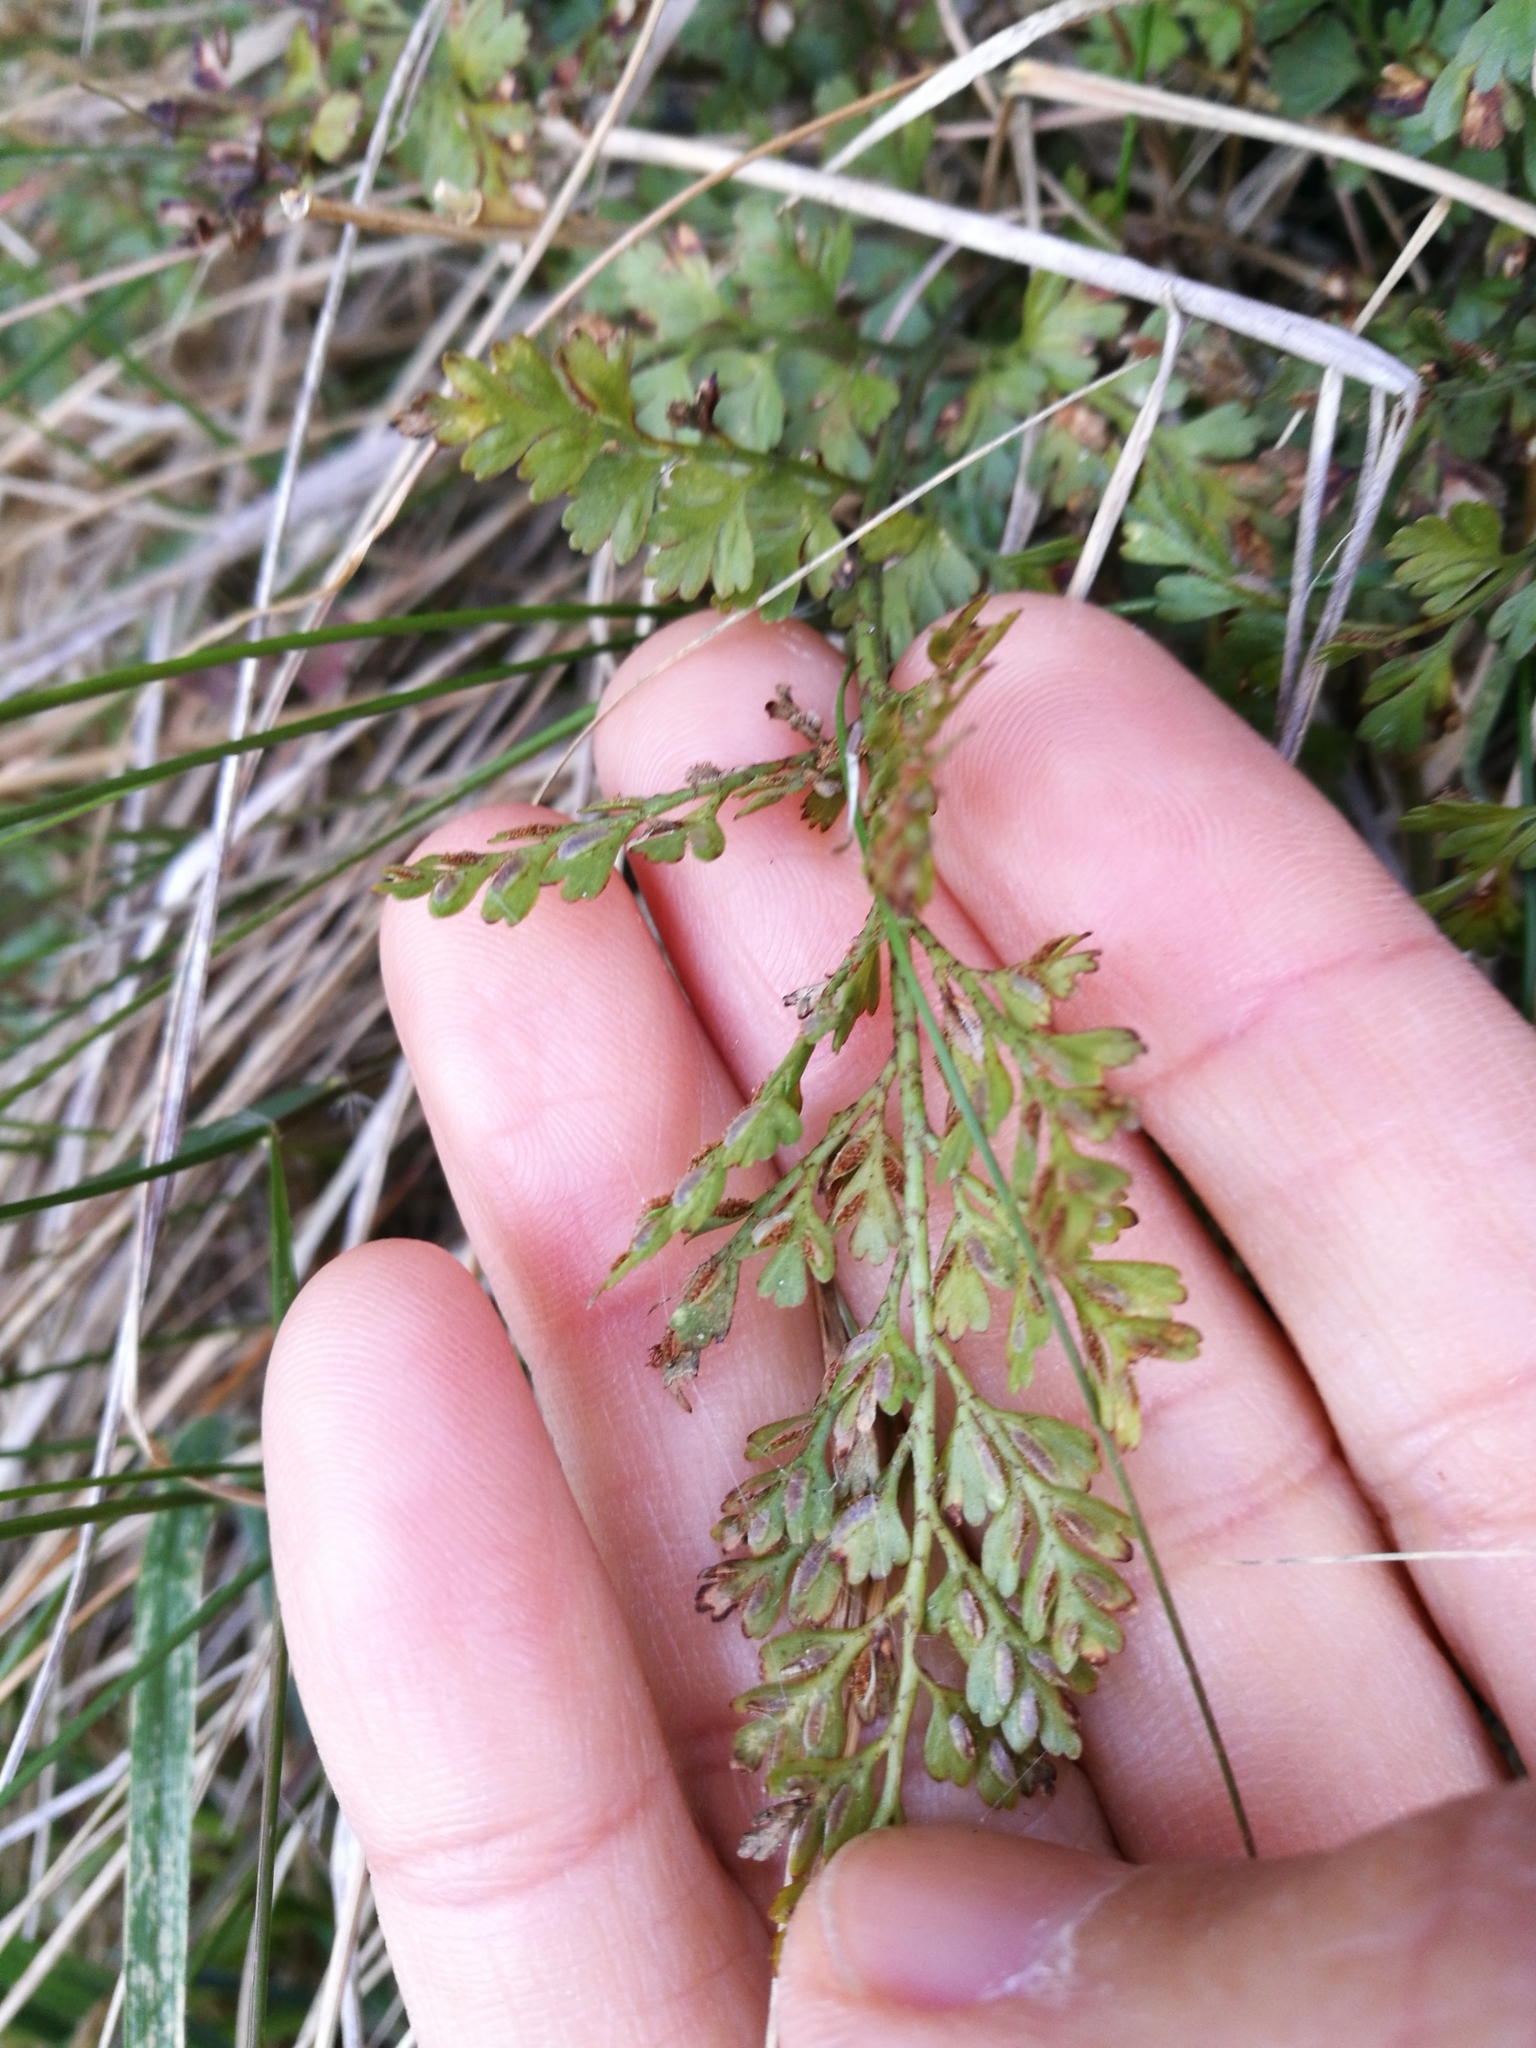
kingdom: Plantae
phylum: Tracheophyta
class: Polypodiopsida
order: Polypodiales
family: Aspleniaceae
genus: Asplenium
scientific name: Asplenium hookerianum
